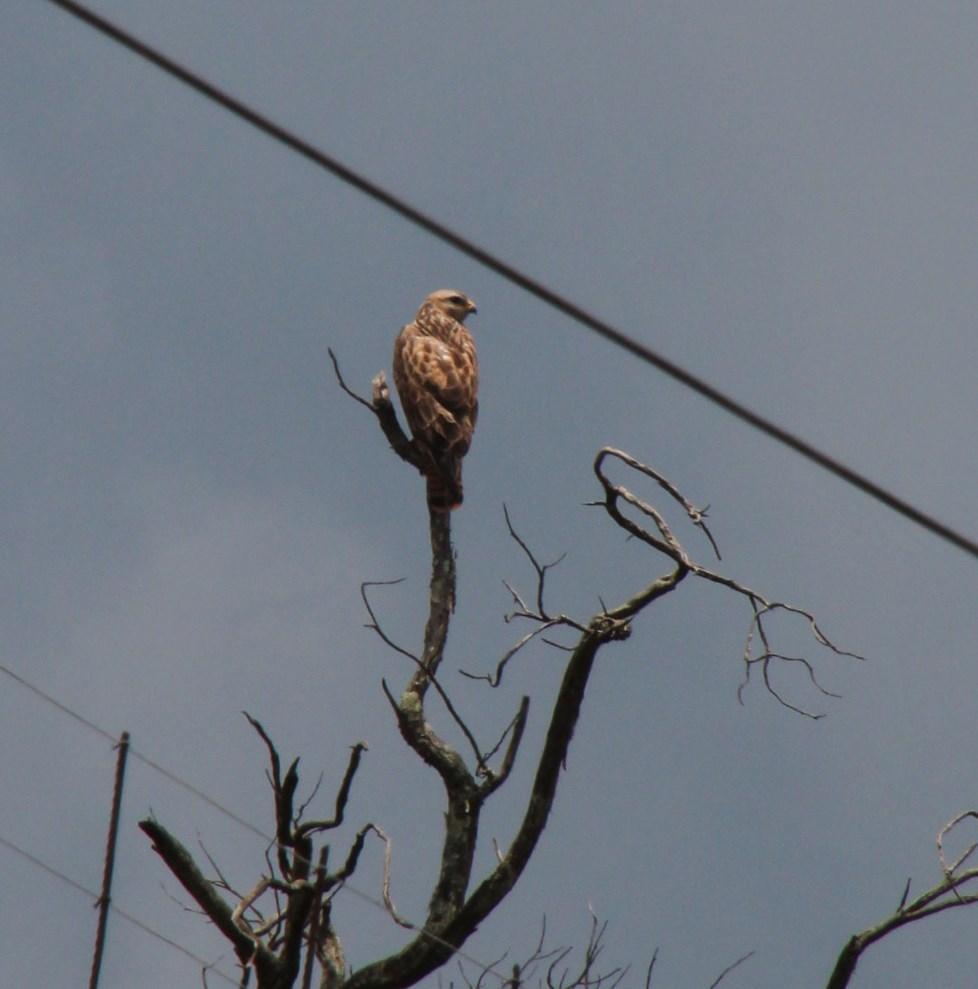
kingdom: Animalia
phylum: Chordata
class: Aves
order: Accipitriformes
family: Accipitridae
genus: Buteo
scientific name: Buteo buteo
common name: Common buzzard
